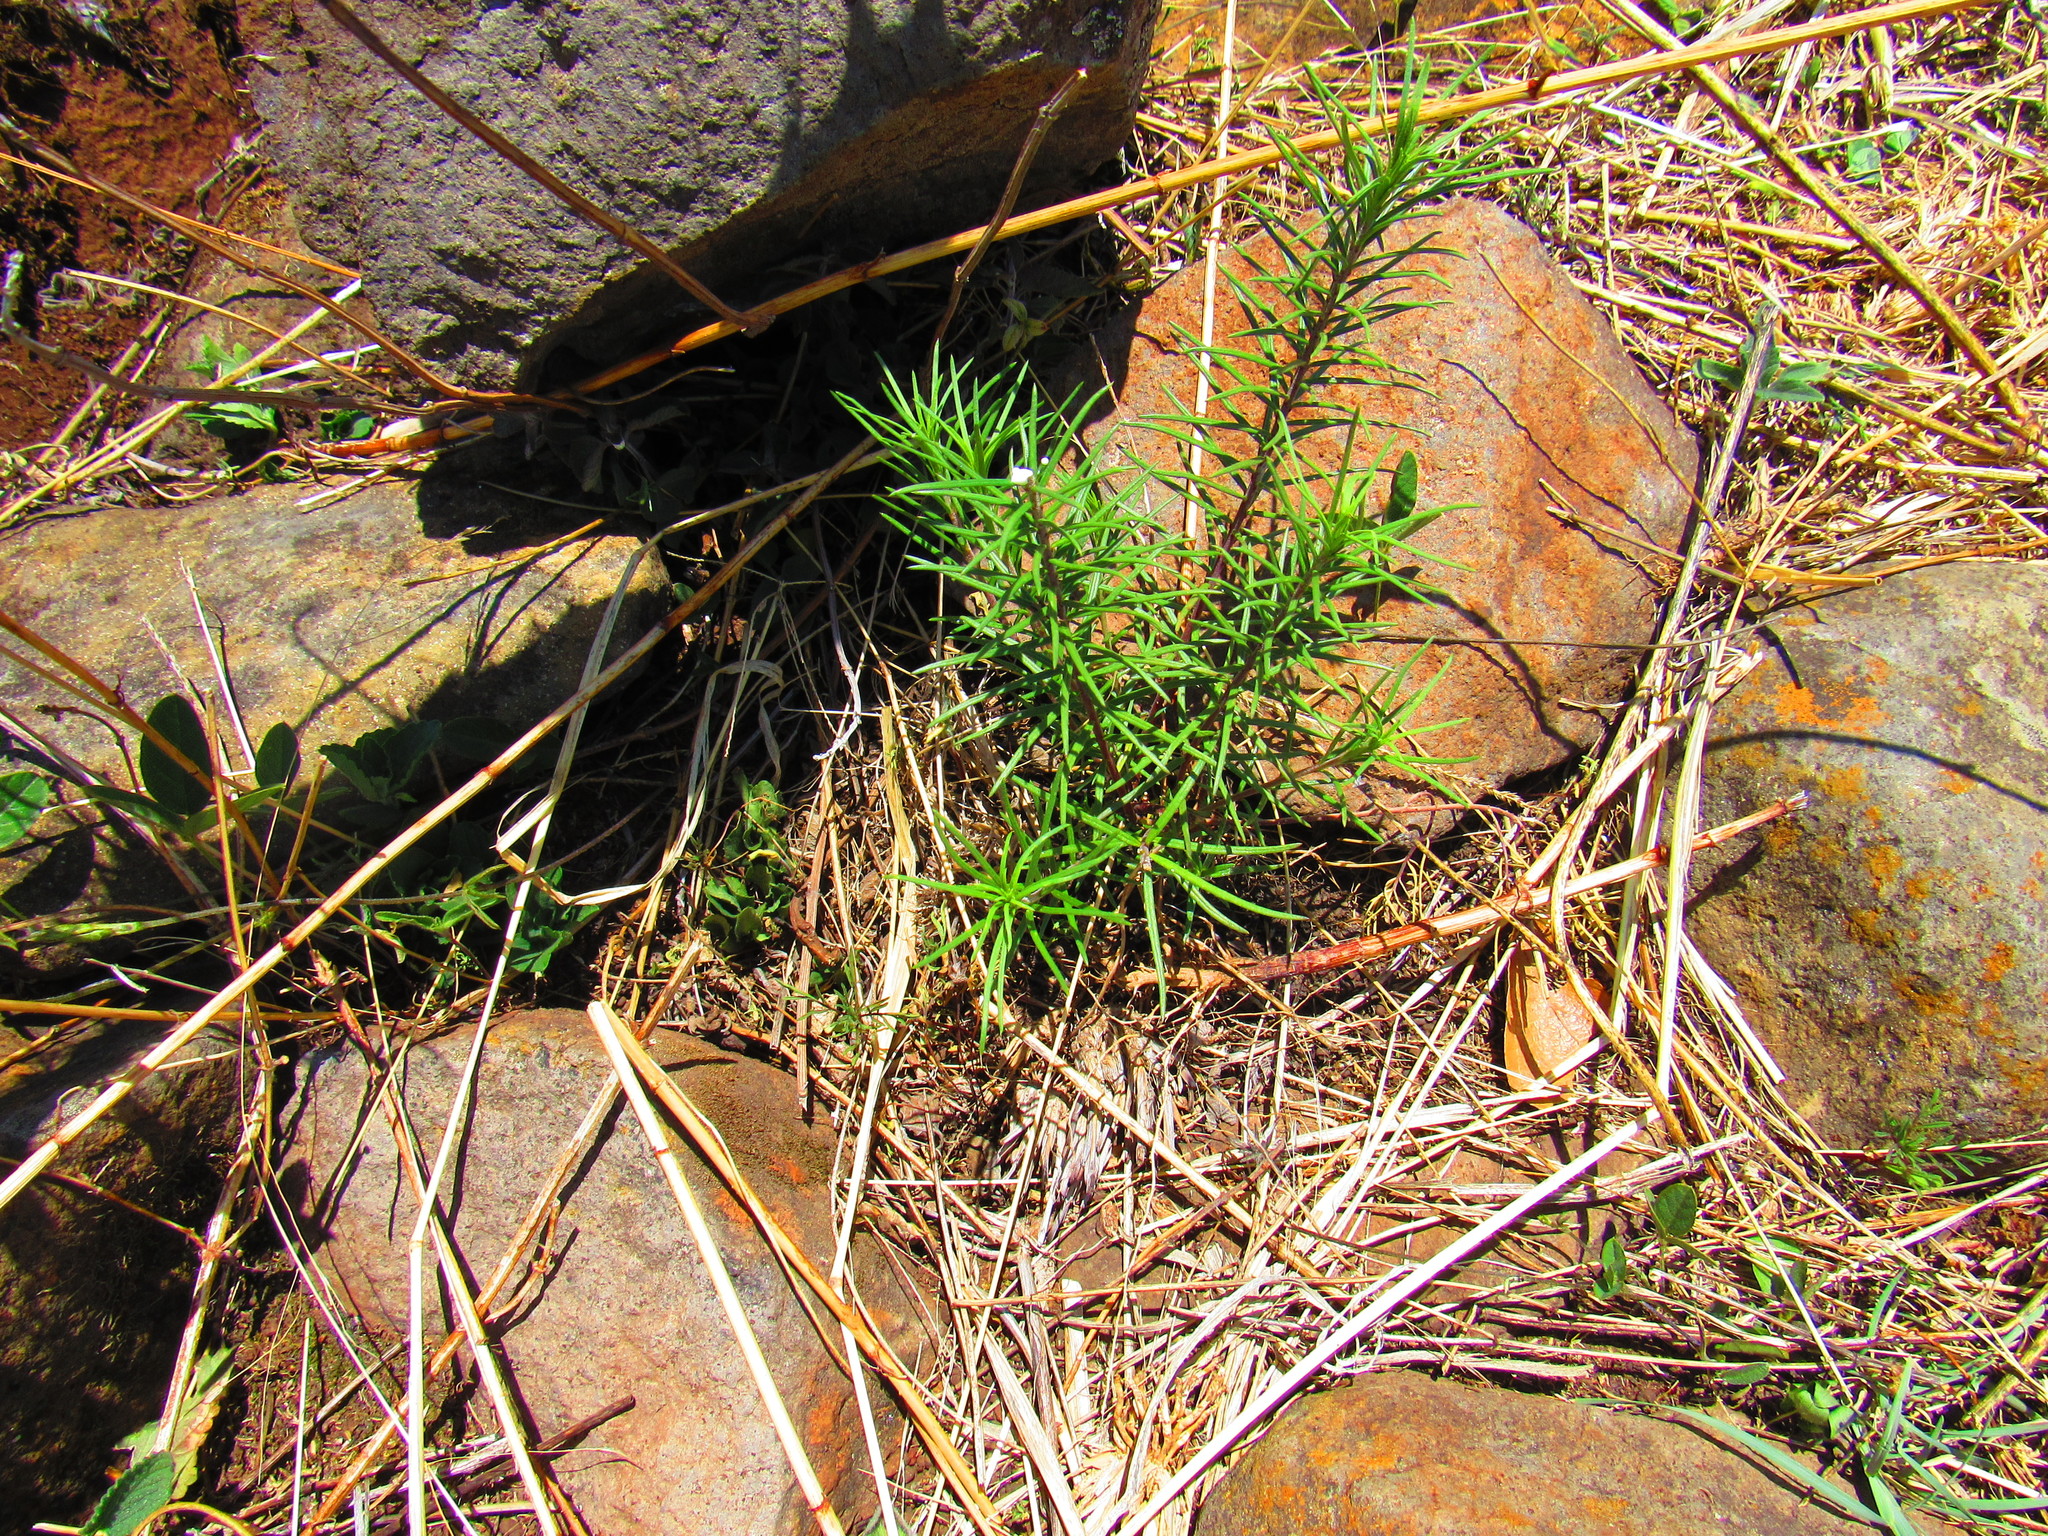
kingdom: Plantae
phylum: Tracheophyta
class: Magnoliopsida
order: Gentianales
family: Apocynaceae
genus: Asclepias
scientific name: Asclepias linaria
